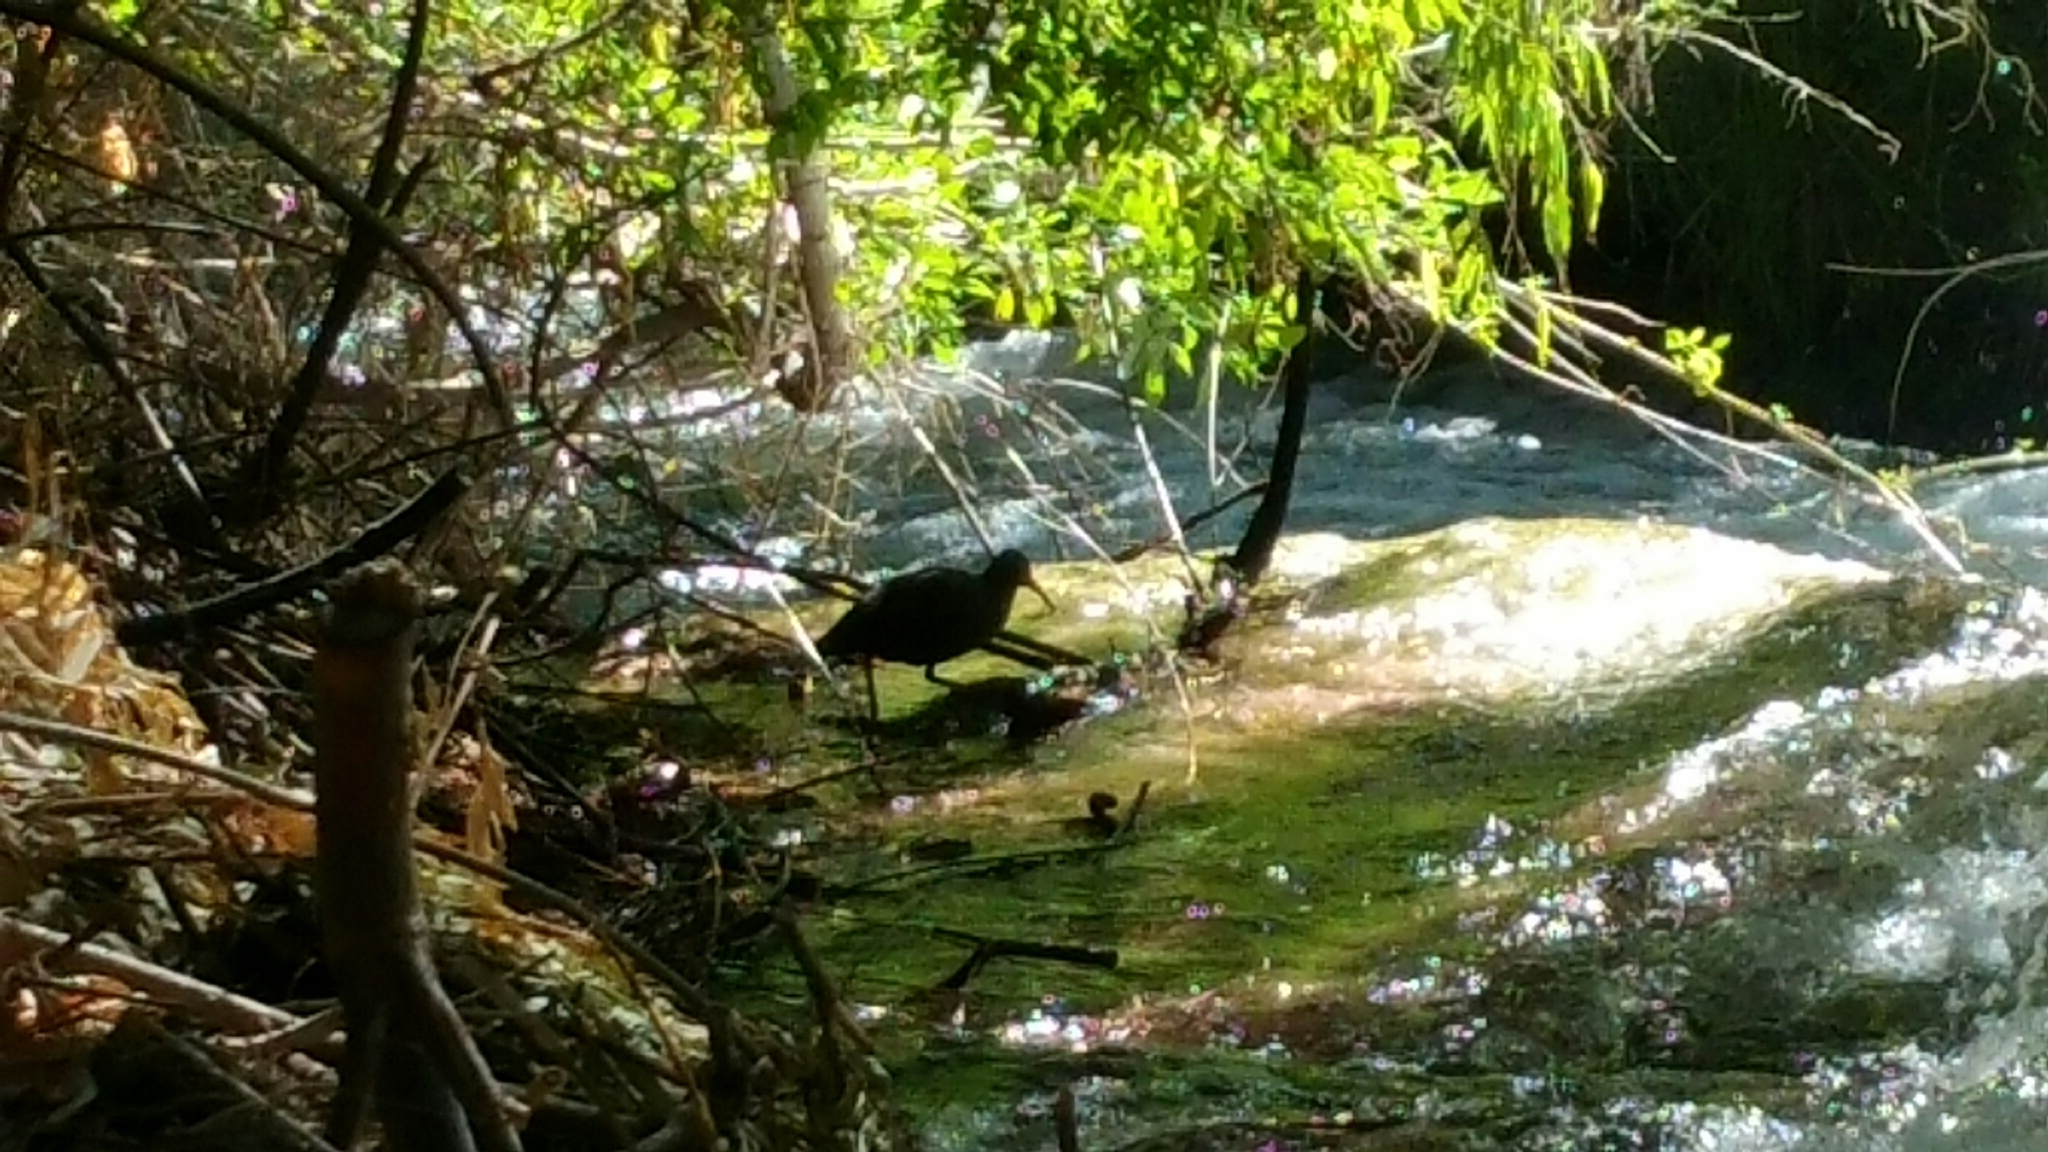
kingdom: Animalia
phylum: Chordata
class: Aves
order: Gruiformes
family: Rallidae
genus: Pardirallus
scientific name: Pardirallus sanguinolentus
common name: Plumbeous rail
